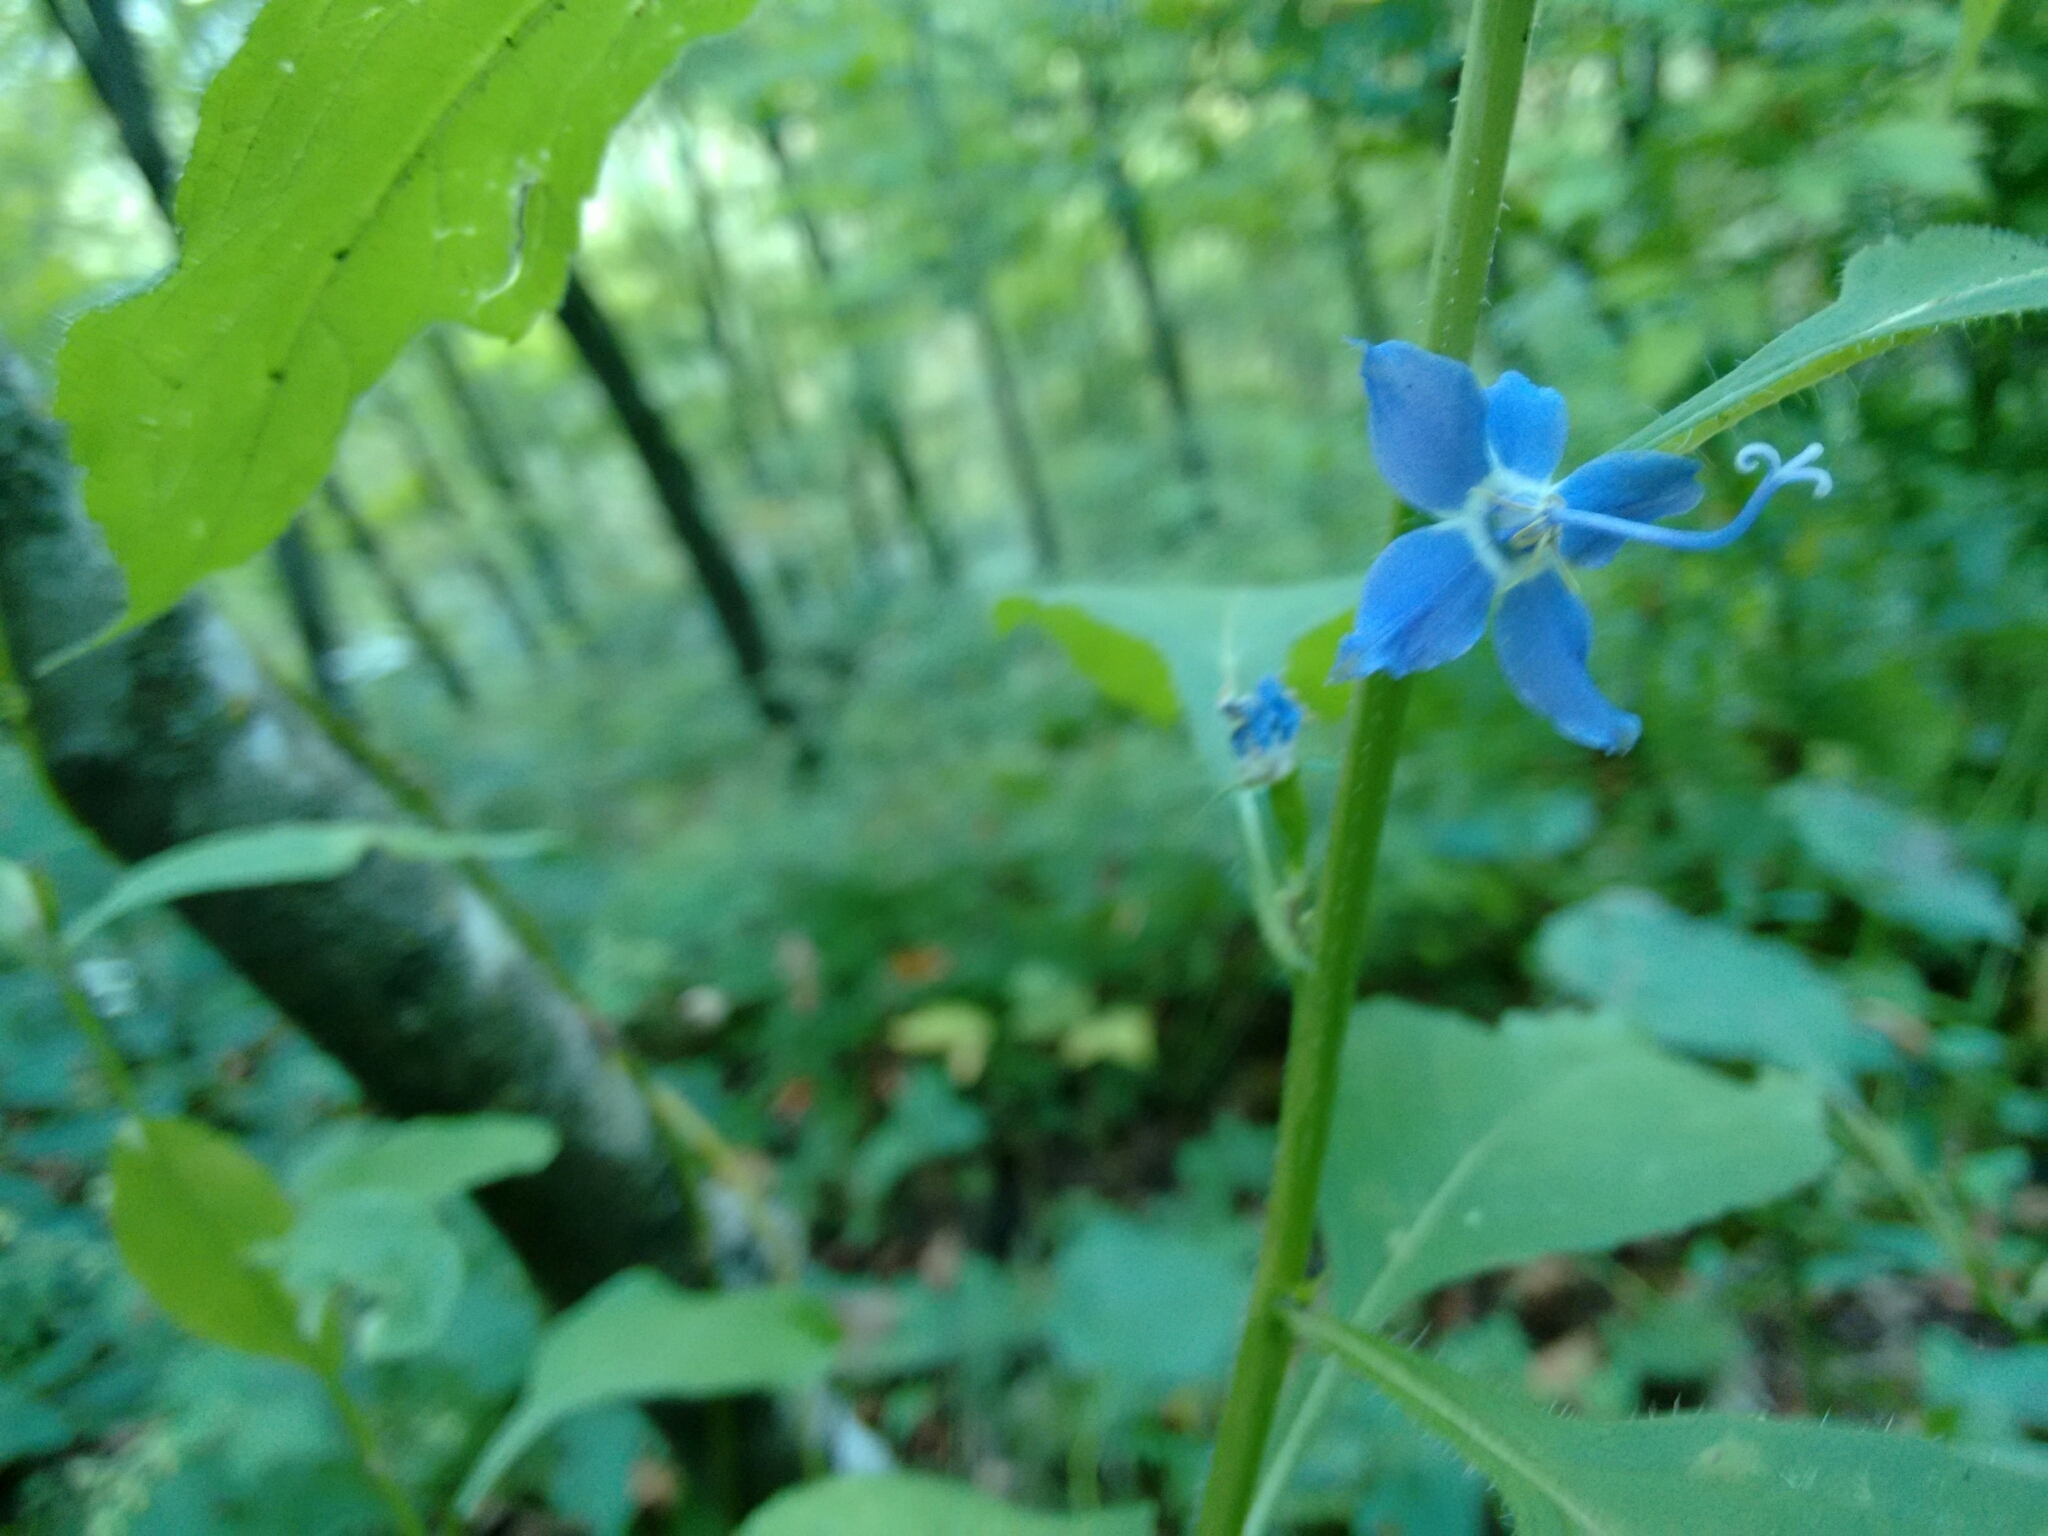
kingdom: Plantae
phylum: Tracheophyta
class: Magnoliopsida
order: Asterales
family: Campanulaceae
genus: Campanulastrum
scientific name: Campanulastrum americanum
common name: American bellflower
